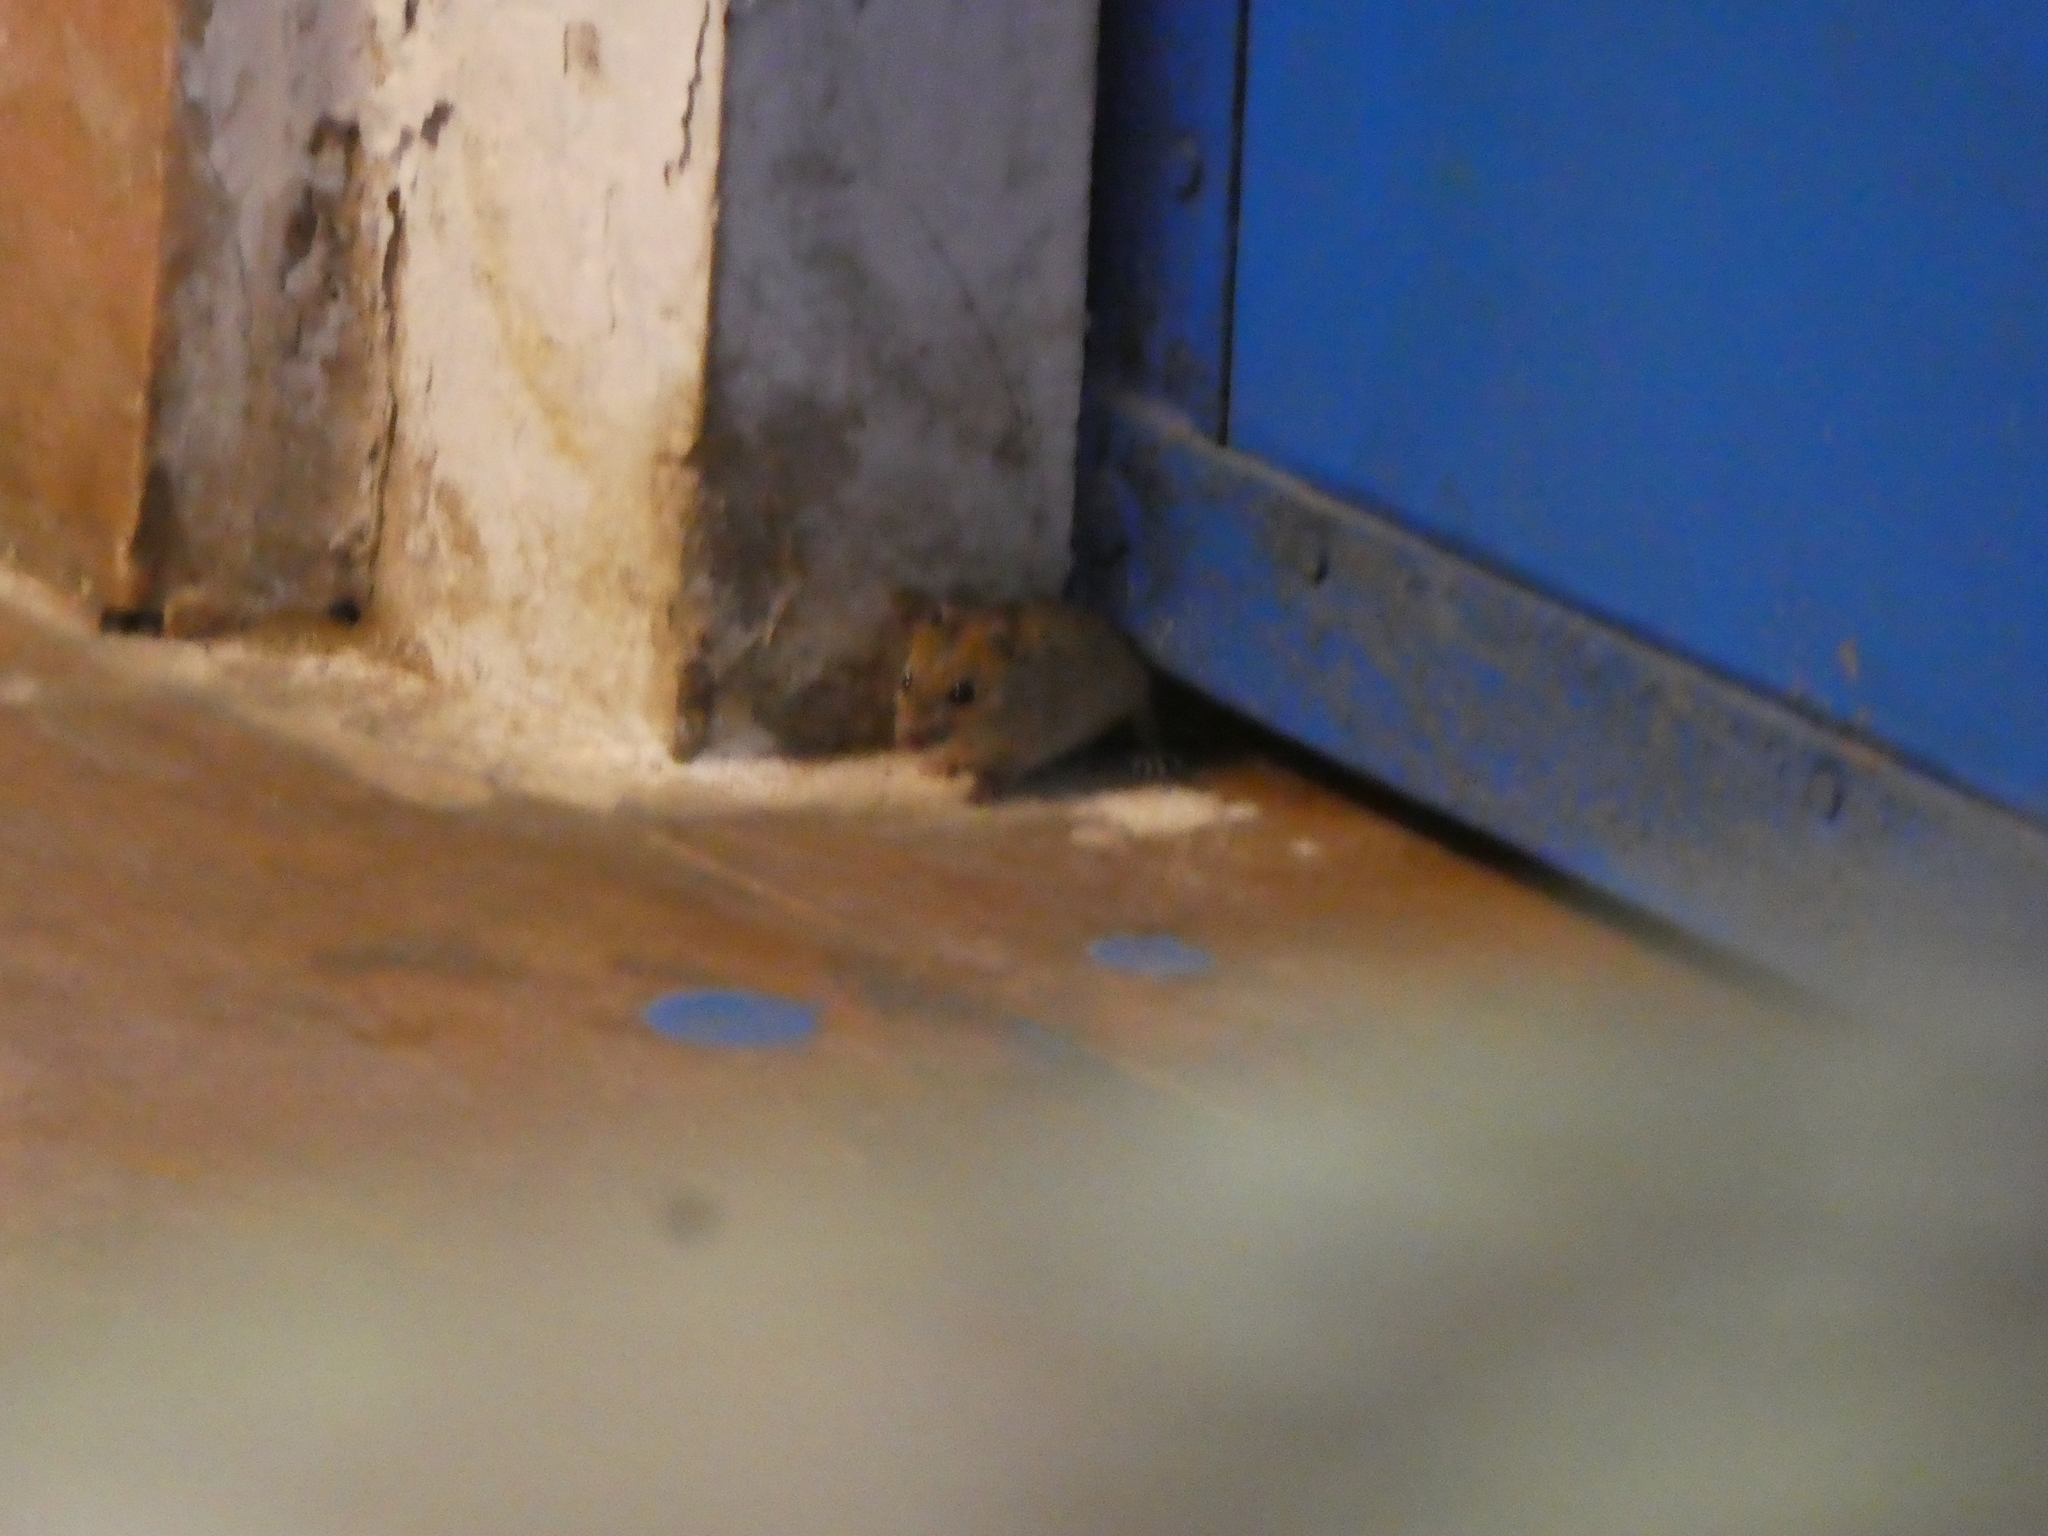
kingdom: Animalia
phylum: Chordata
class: Mammalia
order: Rodentia
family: Muridae
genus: Mus
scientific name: Mus musculus
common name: House mouse
